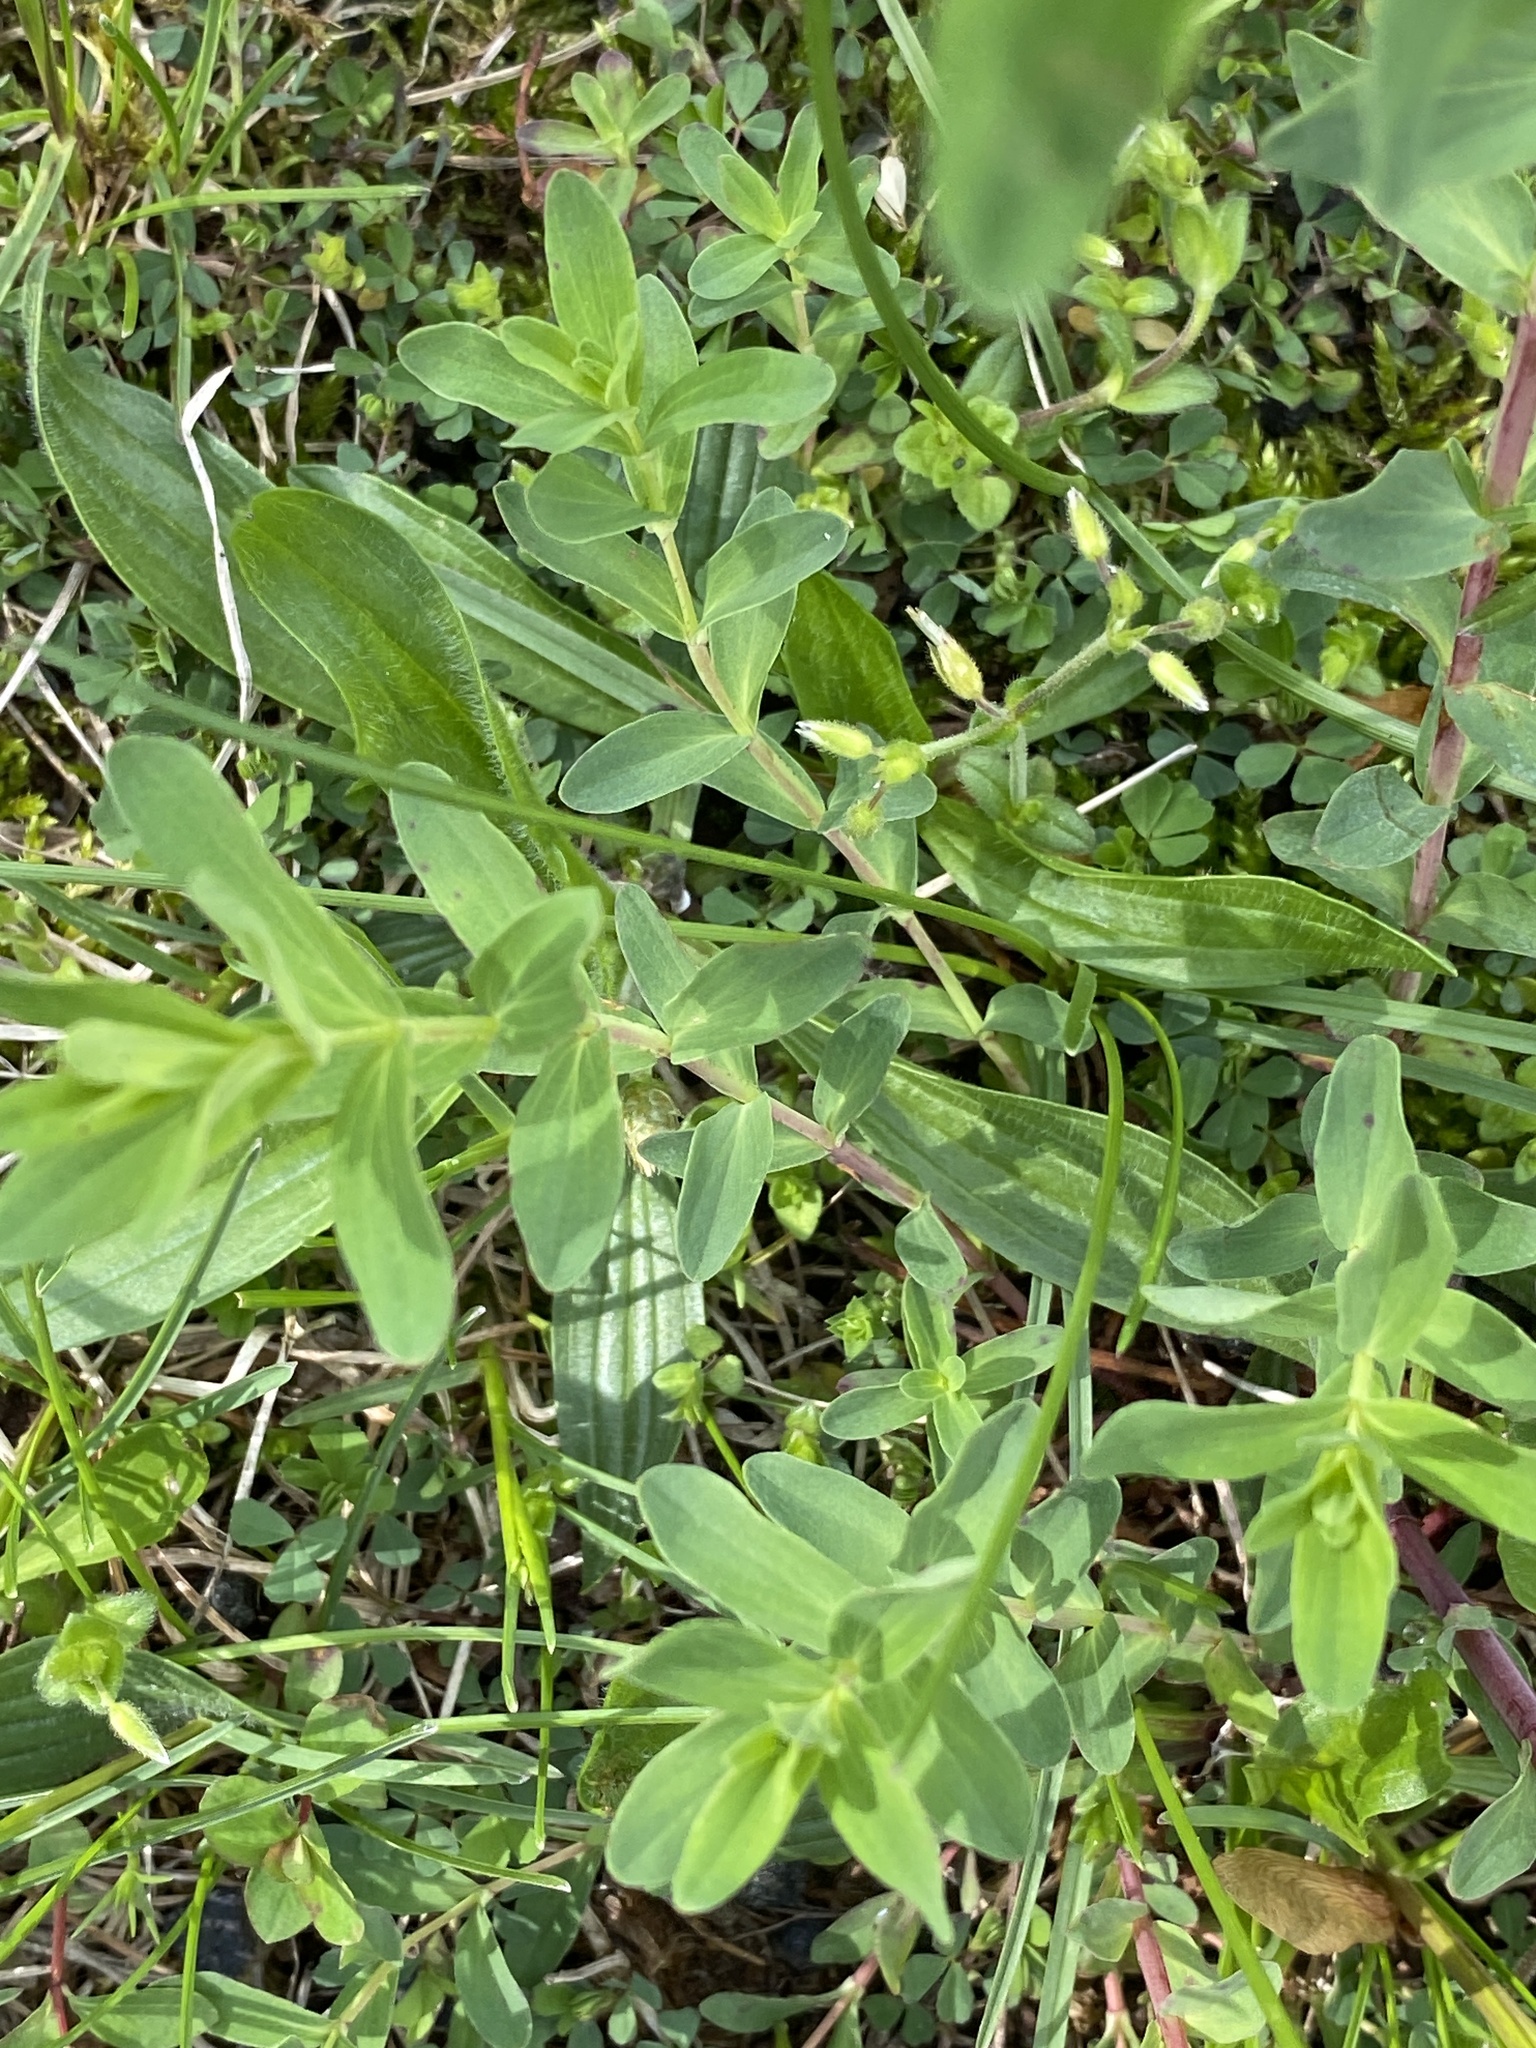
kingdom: Plantae
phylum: Tracheophyta
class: Magnoliopsida
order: Malpighiales
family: Hypericaceae
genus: Hypericum
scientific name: Hypericum perforatum
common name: Common st. johnswort
